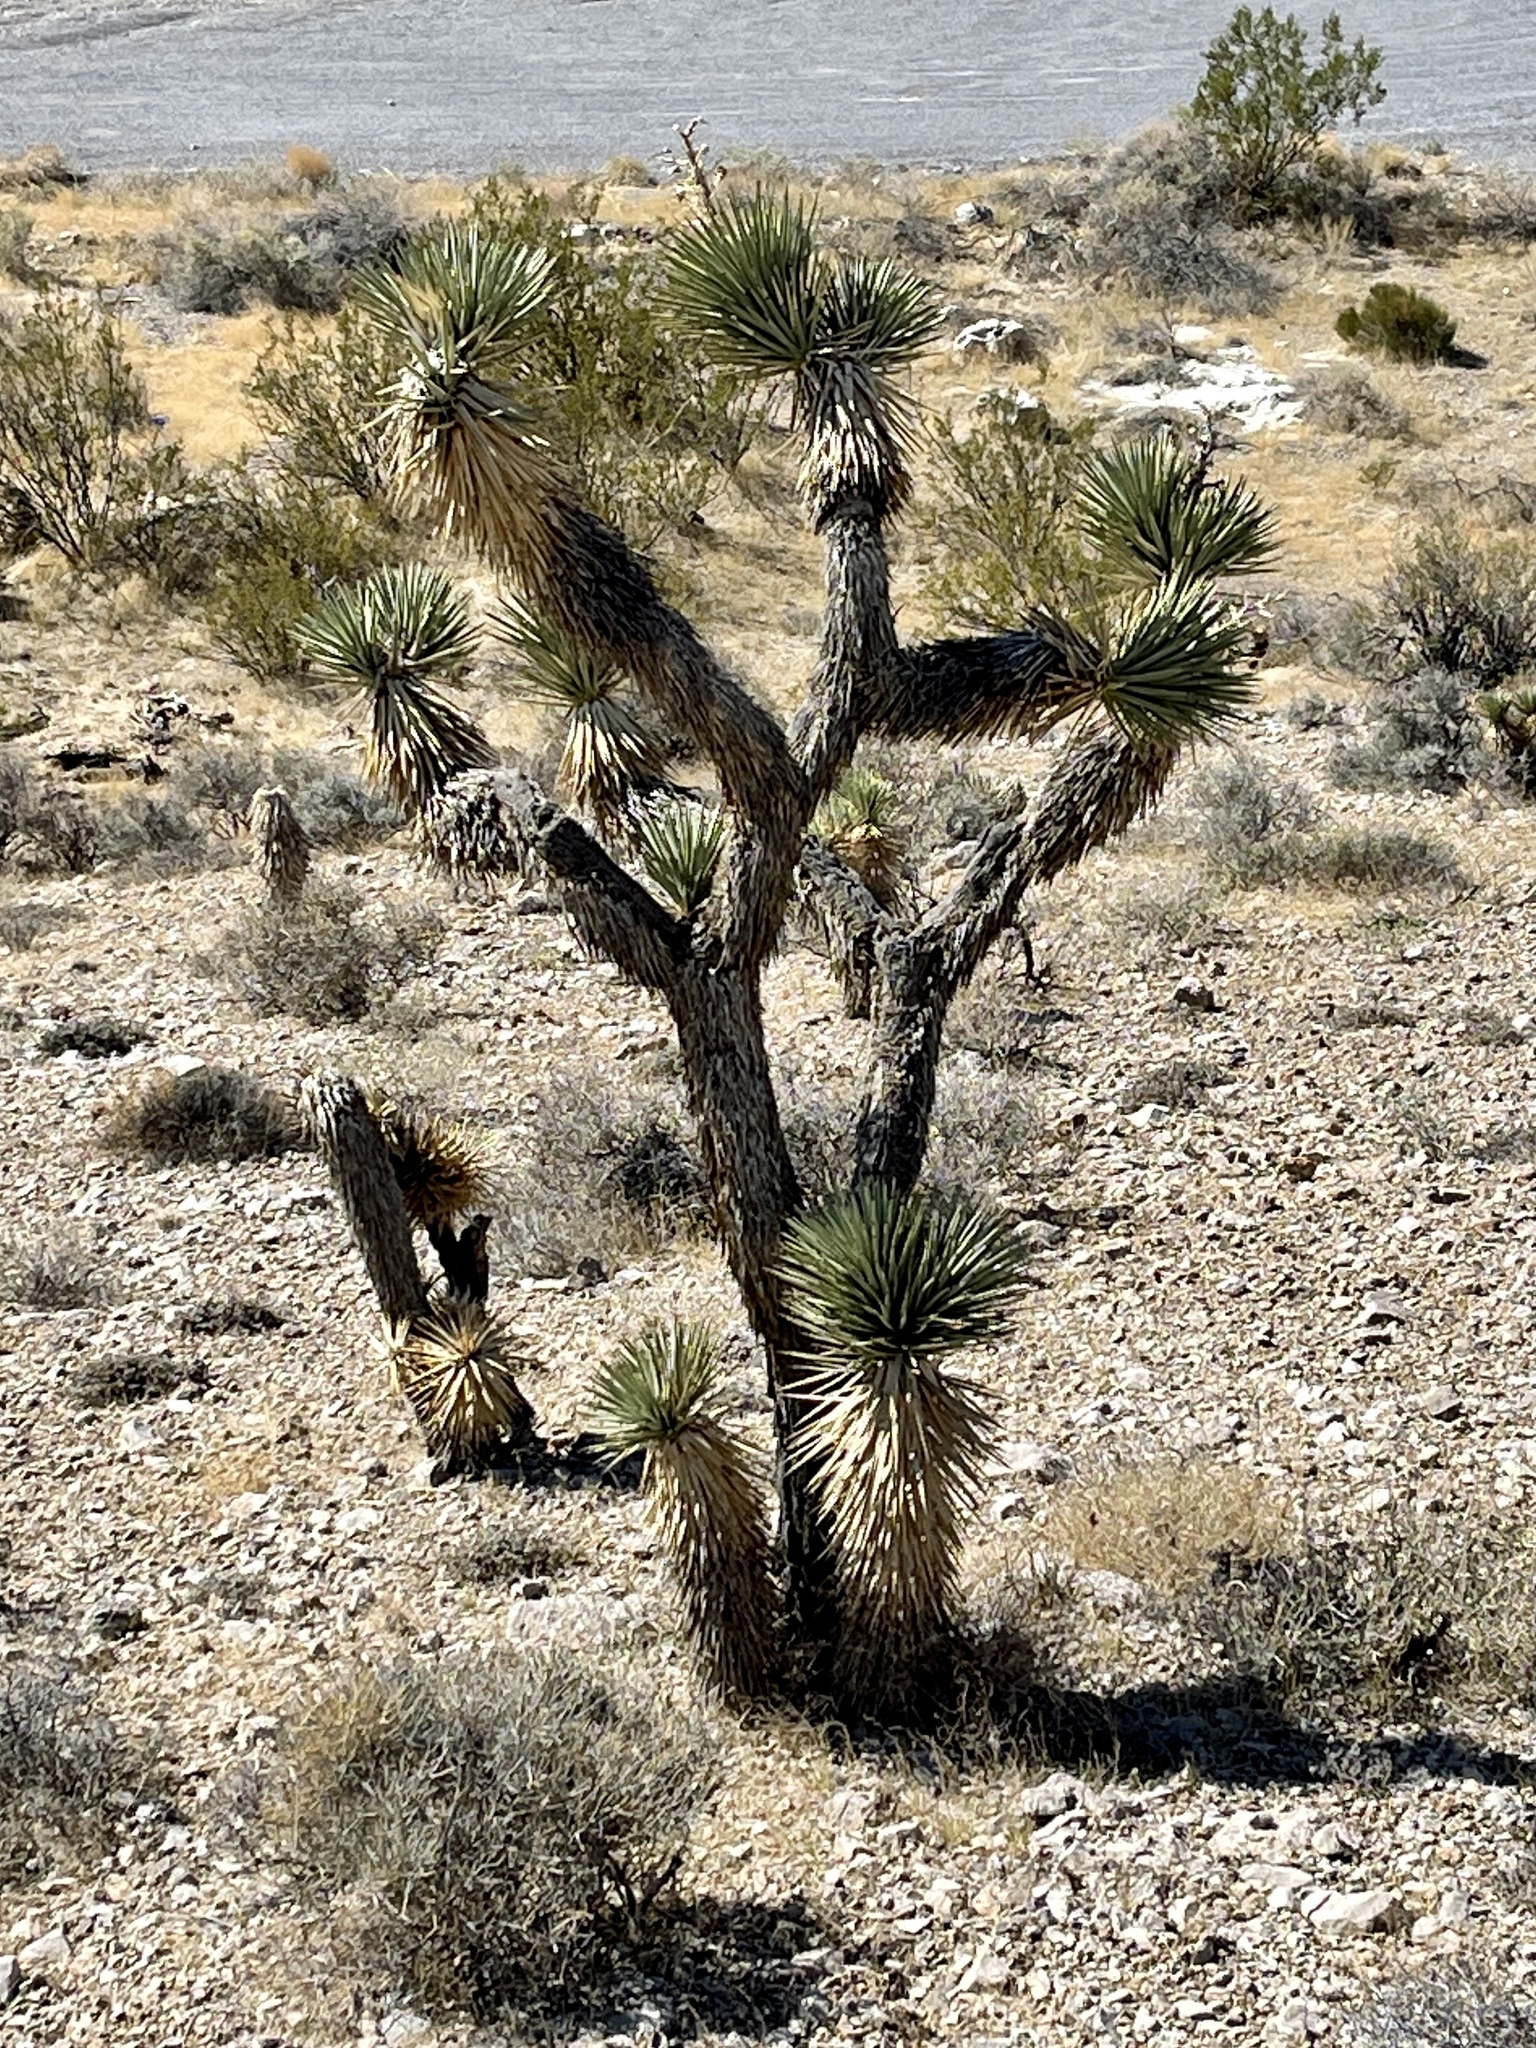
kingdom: Plantae
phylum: Tracheophyta
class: Liliopsida
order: Asparagales
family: Asparagaceae
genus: Yucca
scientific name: Yucca brevifolia
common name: Joshua tree
